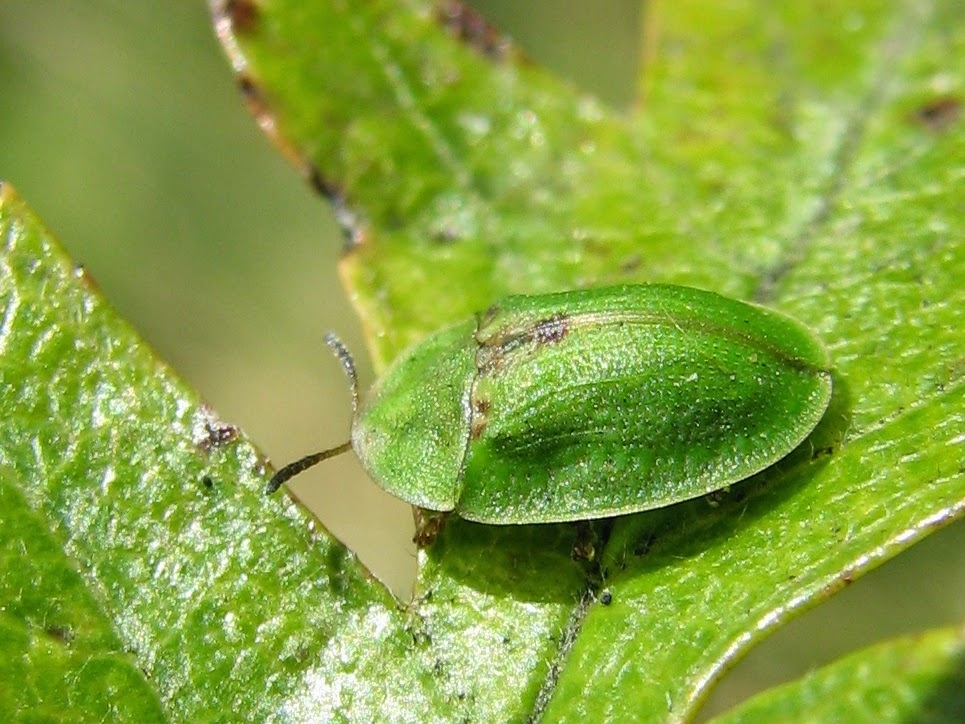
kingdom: Animalia
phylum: Arthropoda
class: Insecta
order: Coleoptera
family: Chrysomelidae
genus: Cassida
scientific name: Cassida rubiginosa
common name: Thistle tortoise beetle
